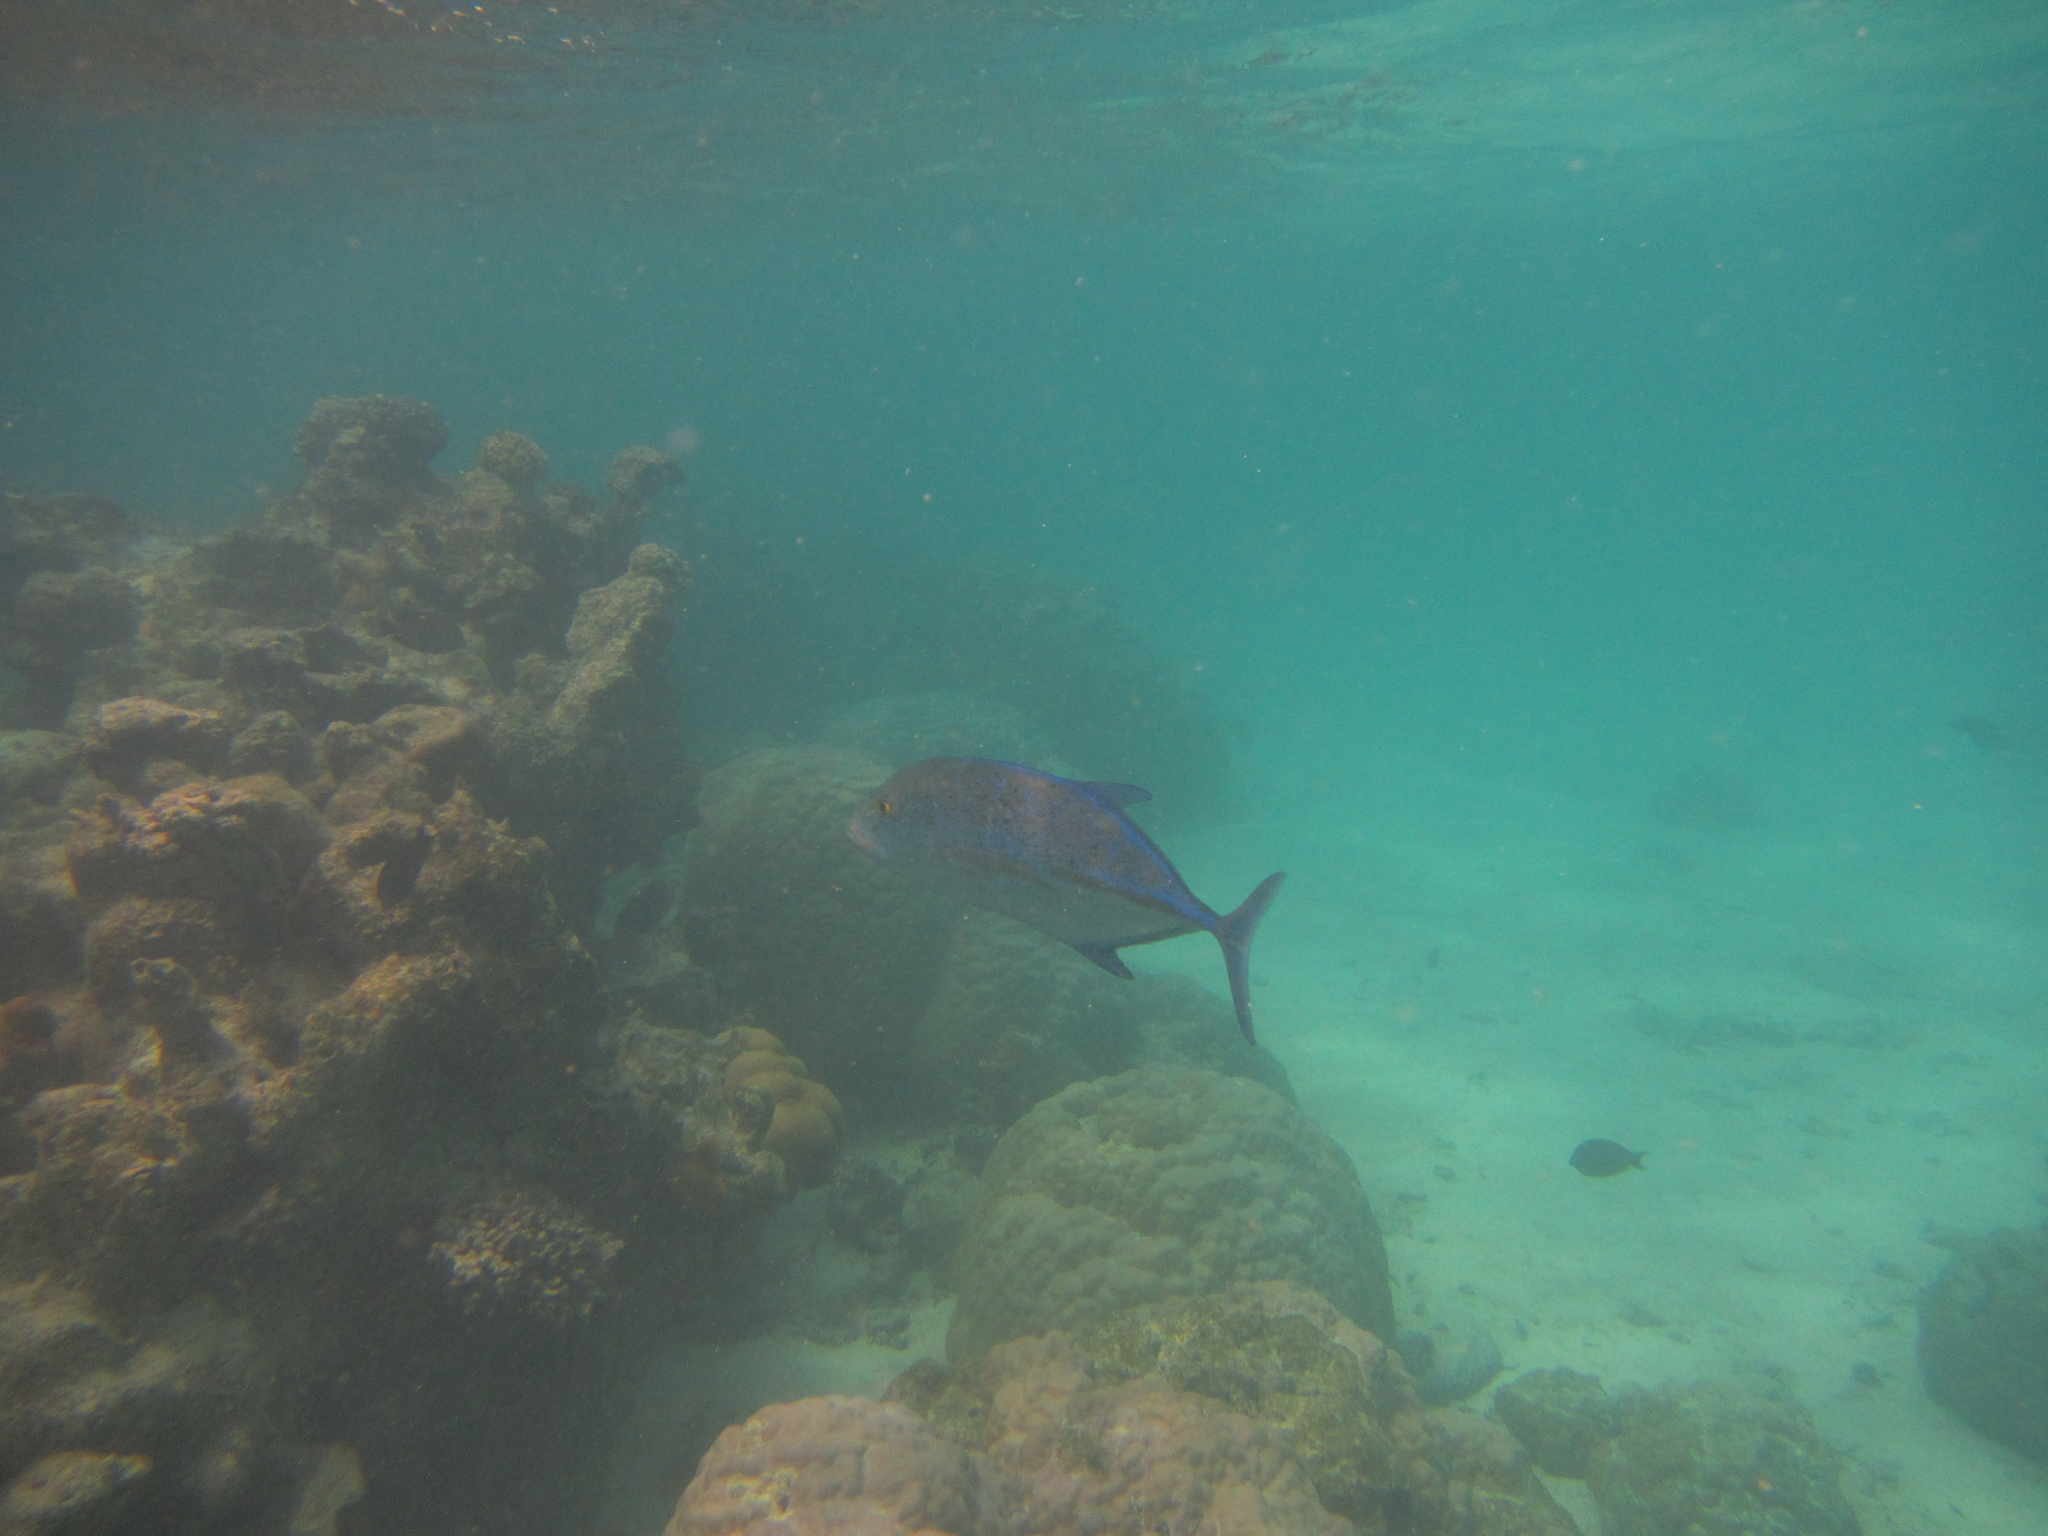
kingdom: Animalia
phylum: Chordata
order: Perciformes
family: Carangidae
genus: Caranx
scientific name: Caranx melampygus
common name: Bluefin trevally
